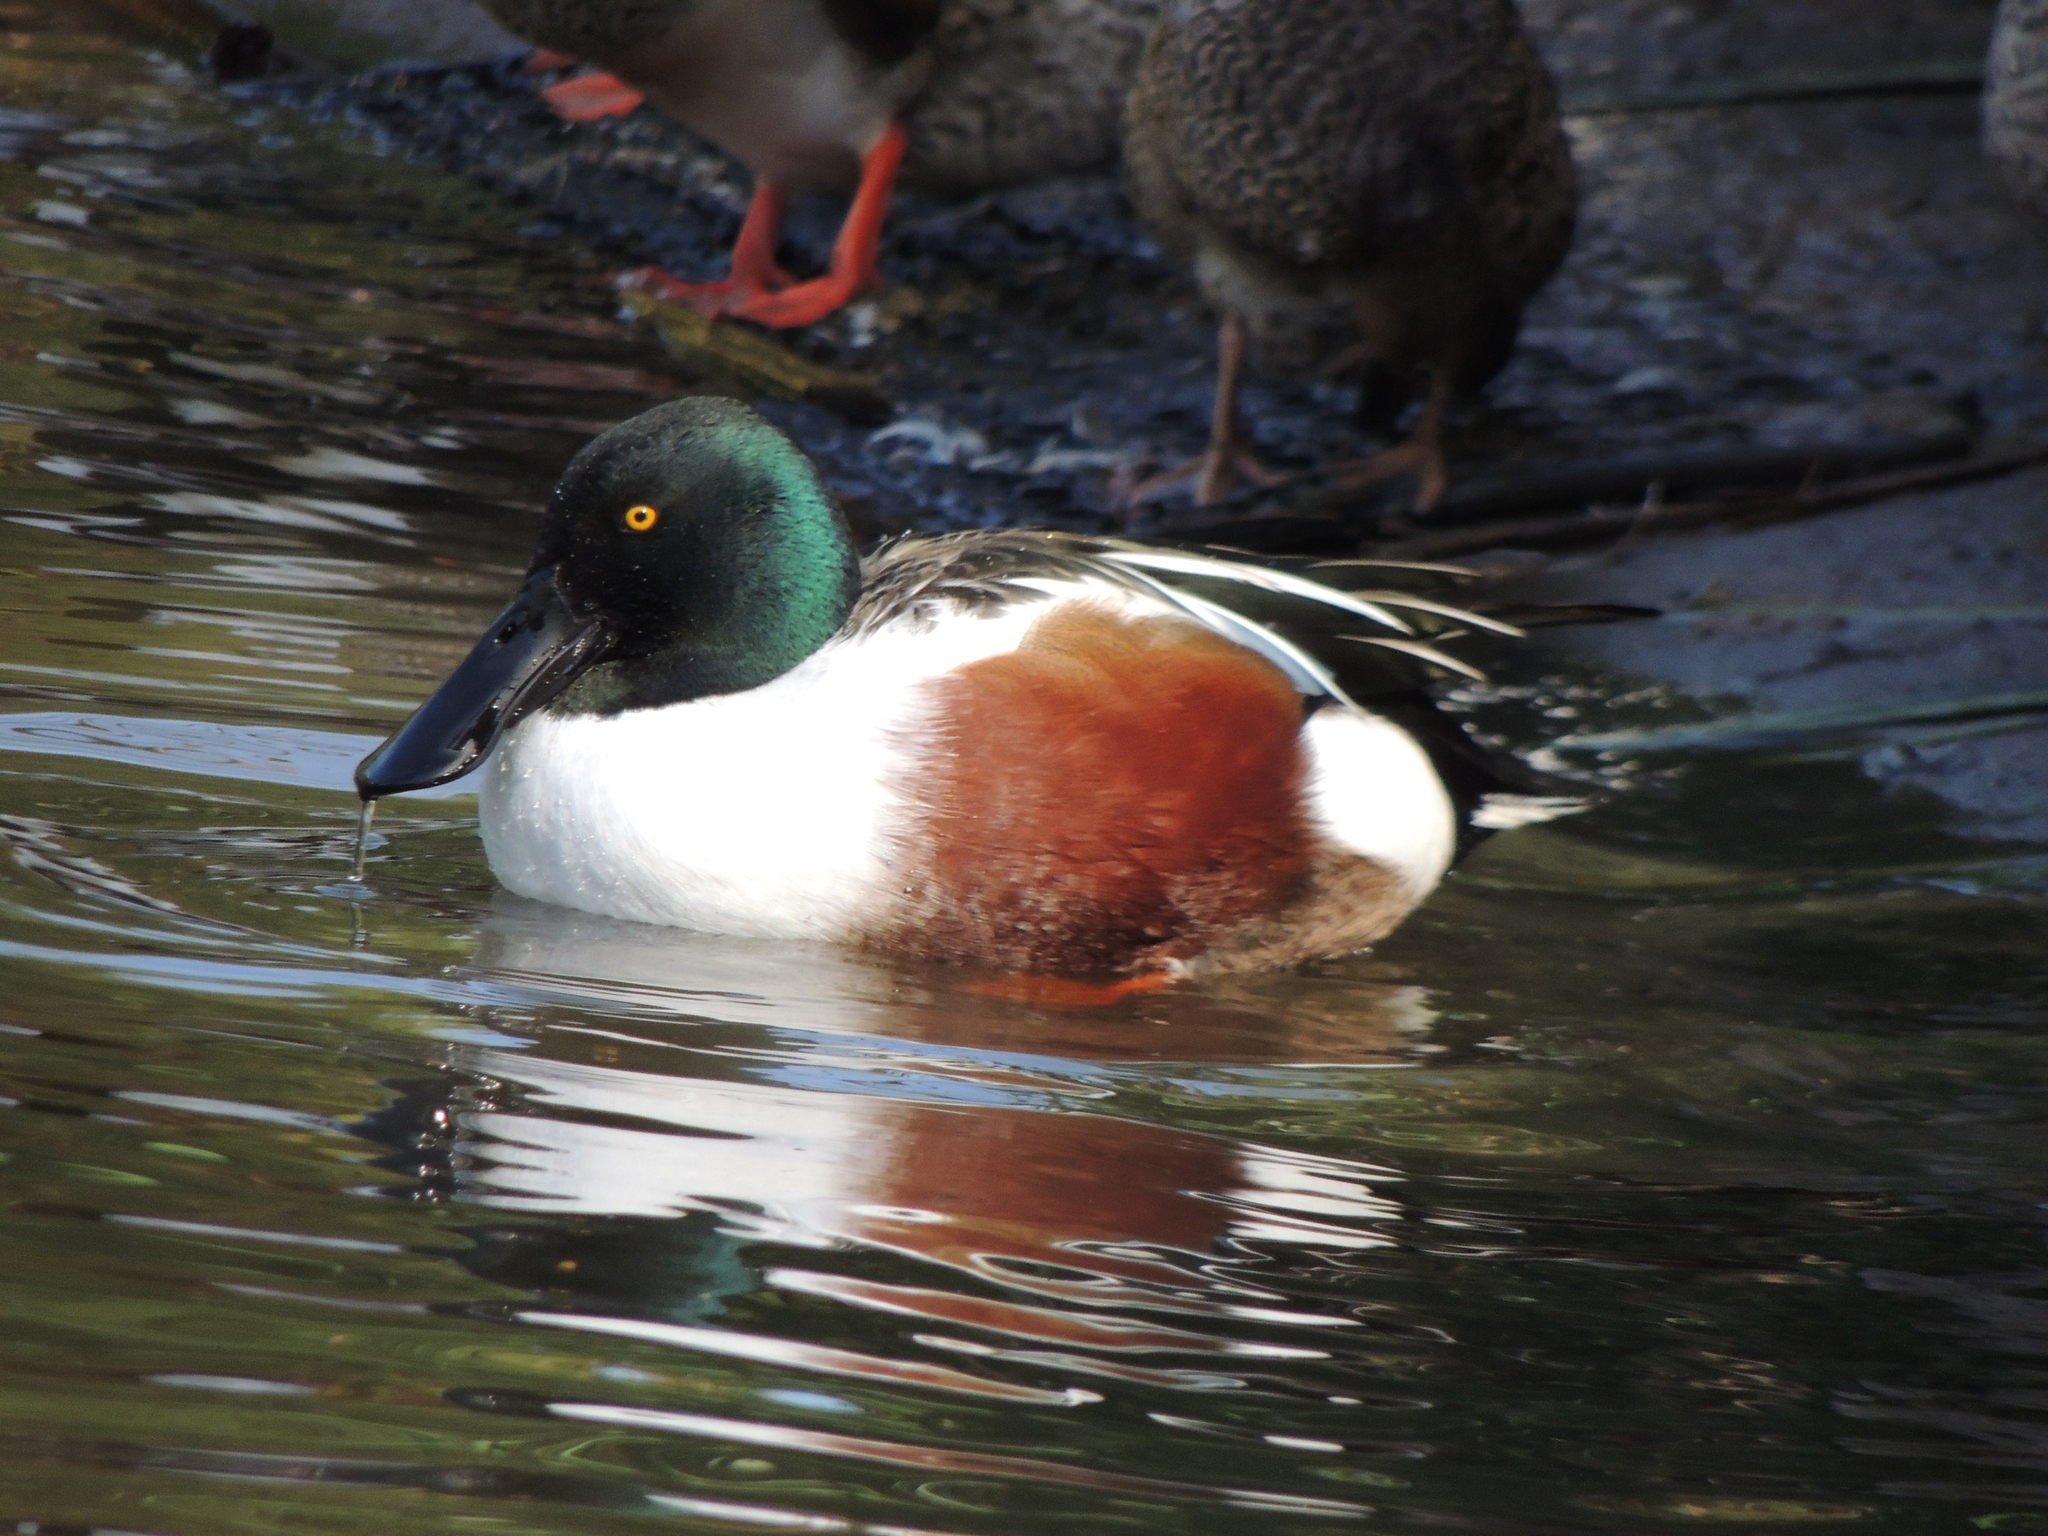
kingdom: Animalia
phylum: Chordata
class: Aves
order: Anseriformes
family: Anatidae
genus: Spatula
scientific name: Spatula clypeata
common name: Northern shoveler
